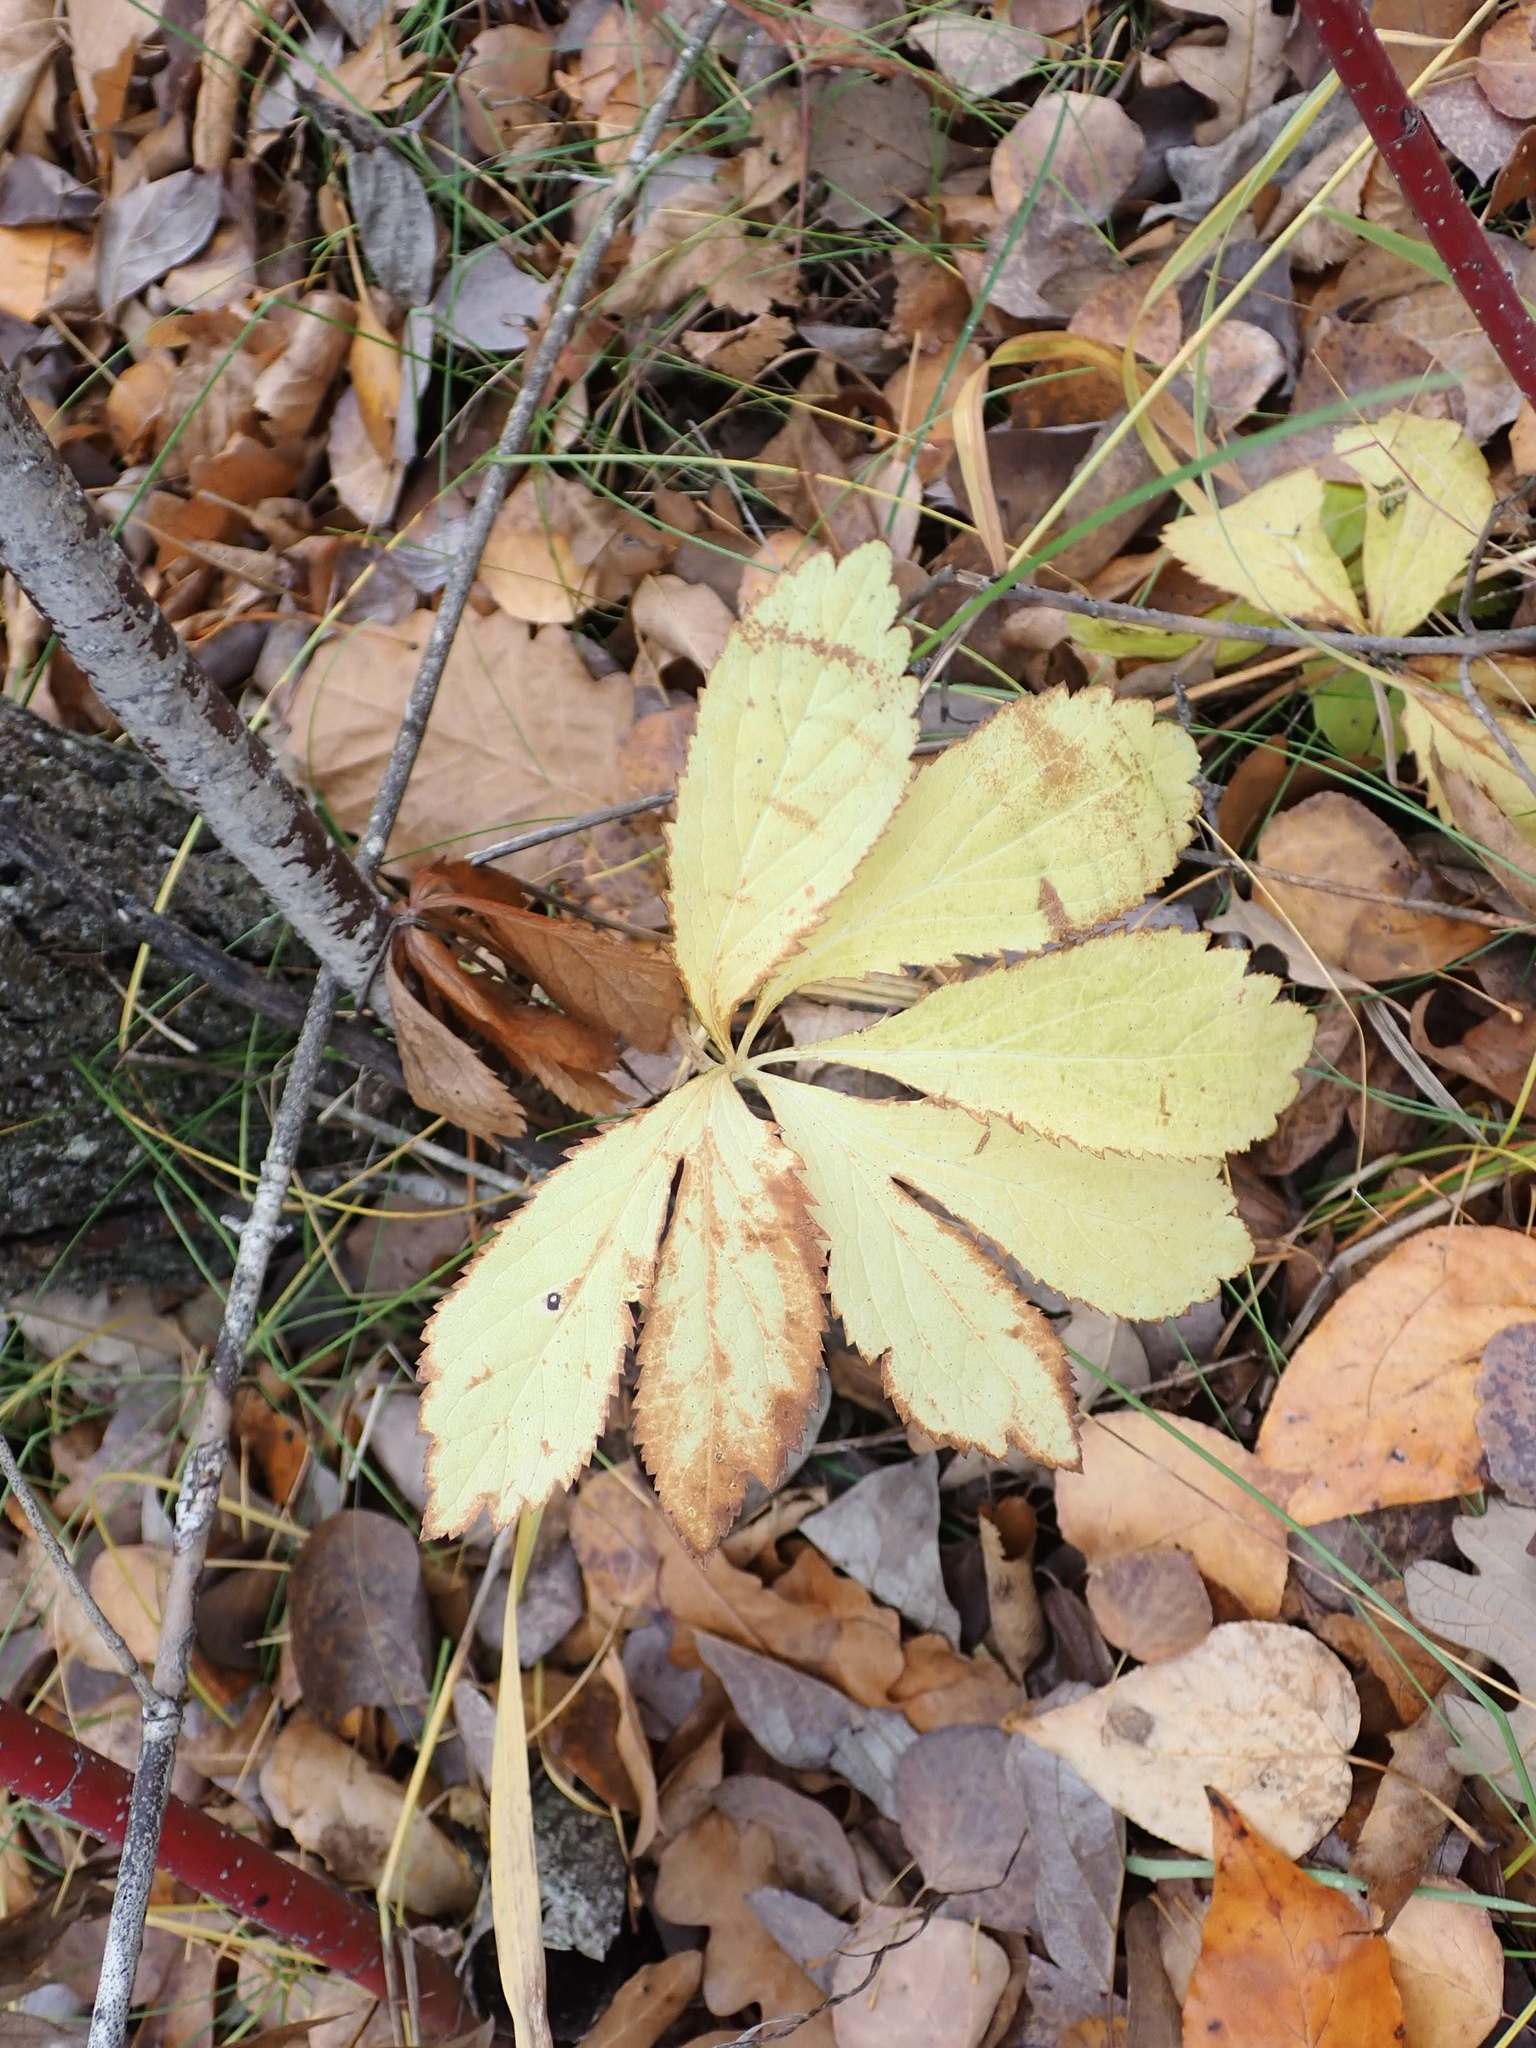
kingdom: Plantae
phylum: Tracheophyta
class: Magnoliopsida
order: Apiales
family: Apiaceae
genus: Sanicula
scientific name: Sanicula marilandica
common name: Black snakeroot
